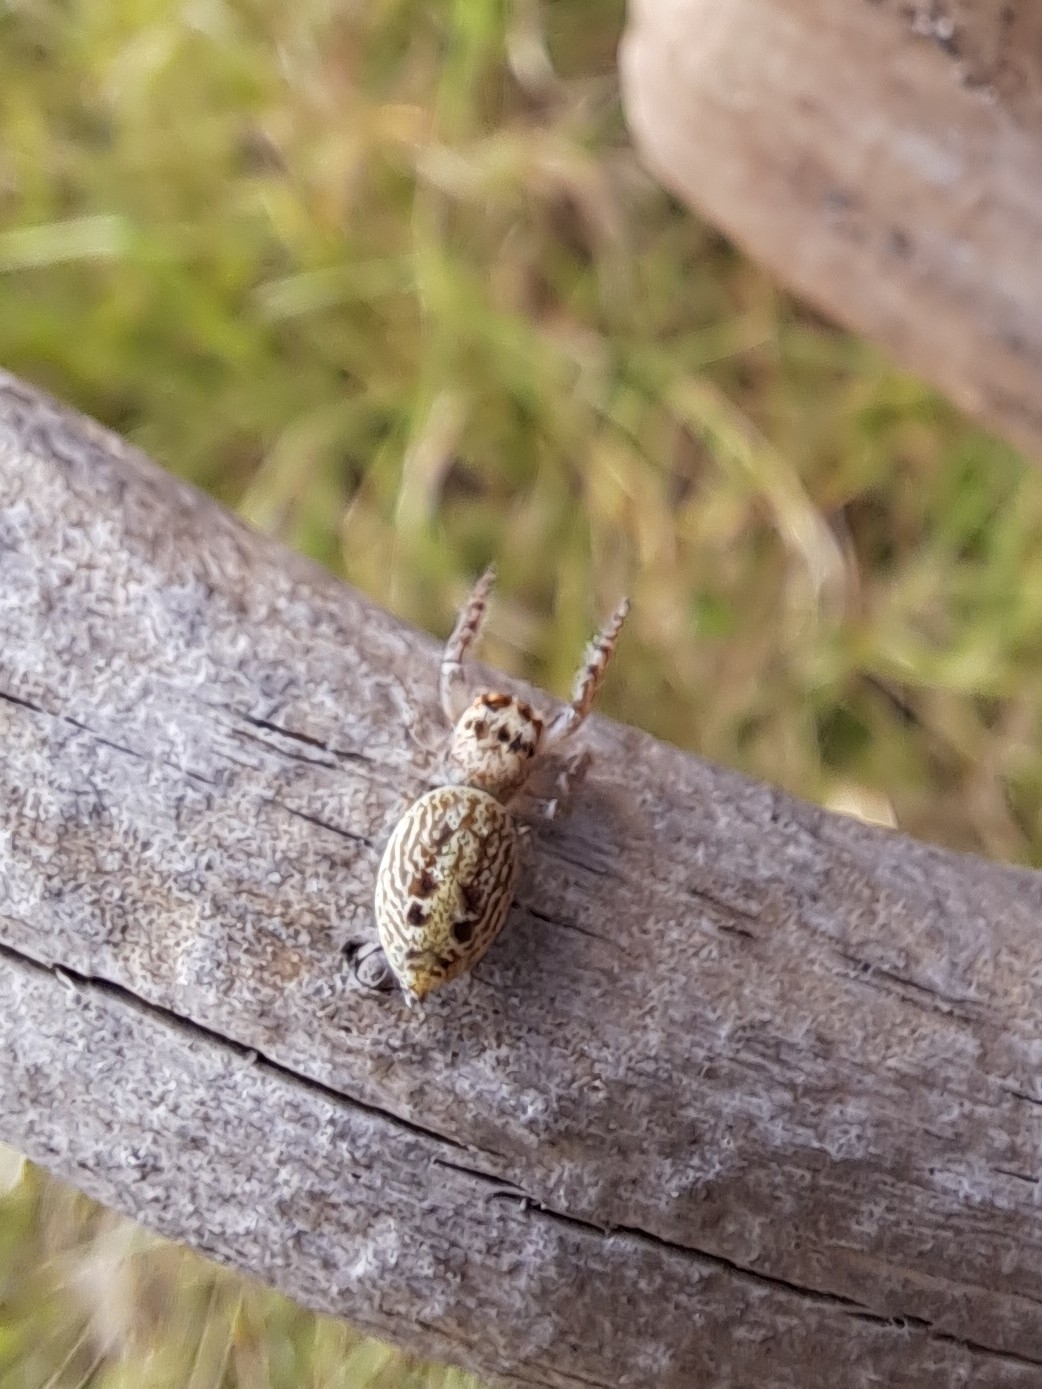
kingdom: Animalia
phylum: Arthropoda
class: Arachnida
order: Araneae
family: Salticidae
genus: Opisthoncus
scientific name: Opisthoncus polyphemus
